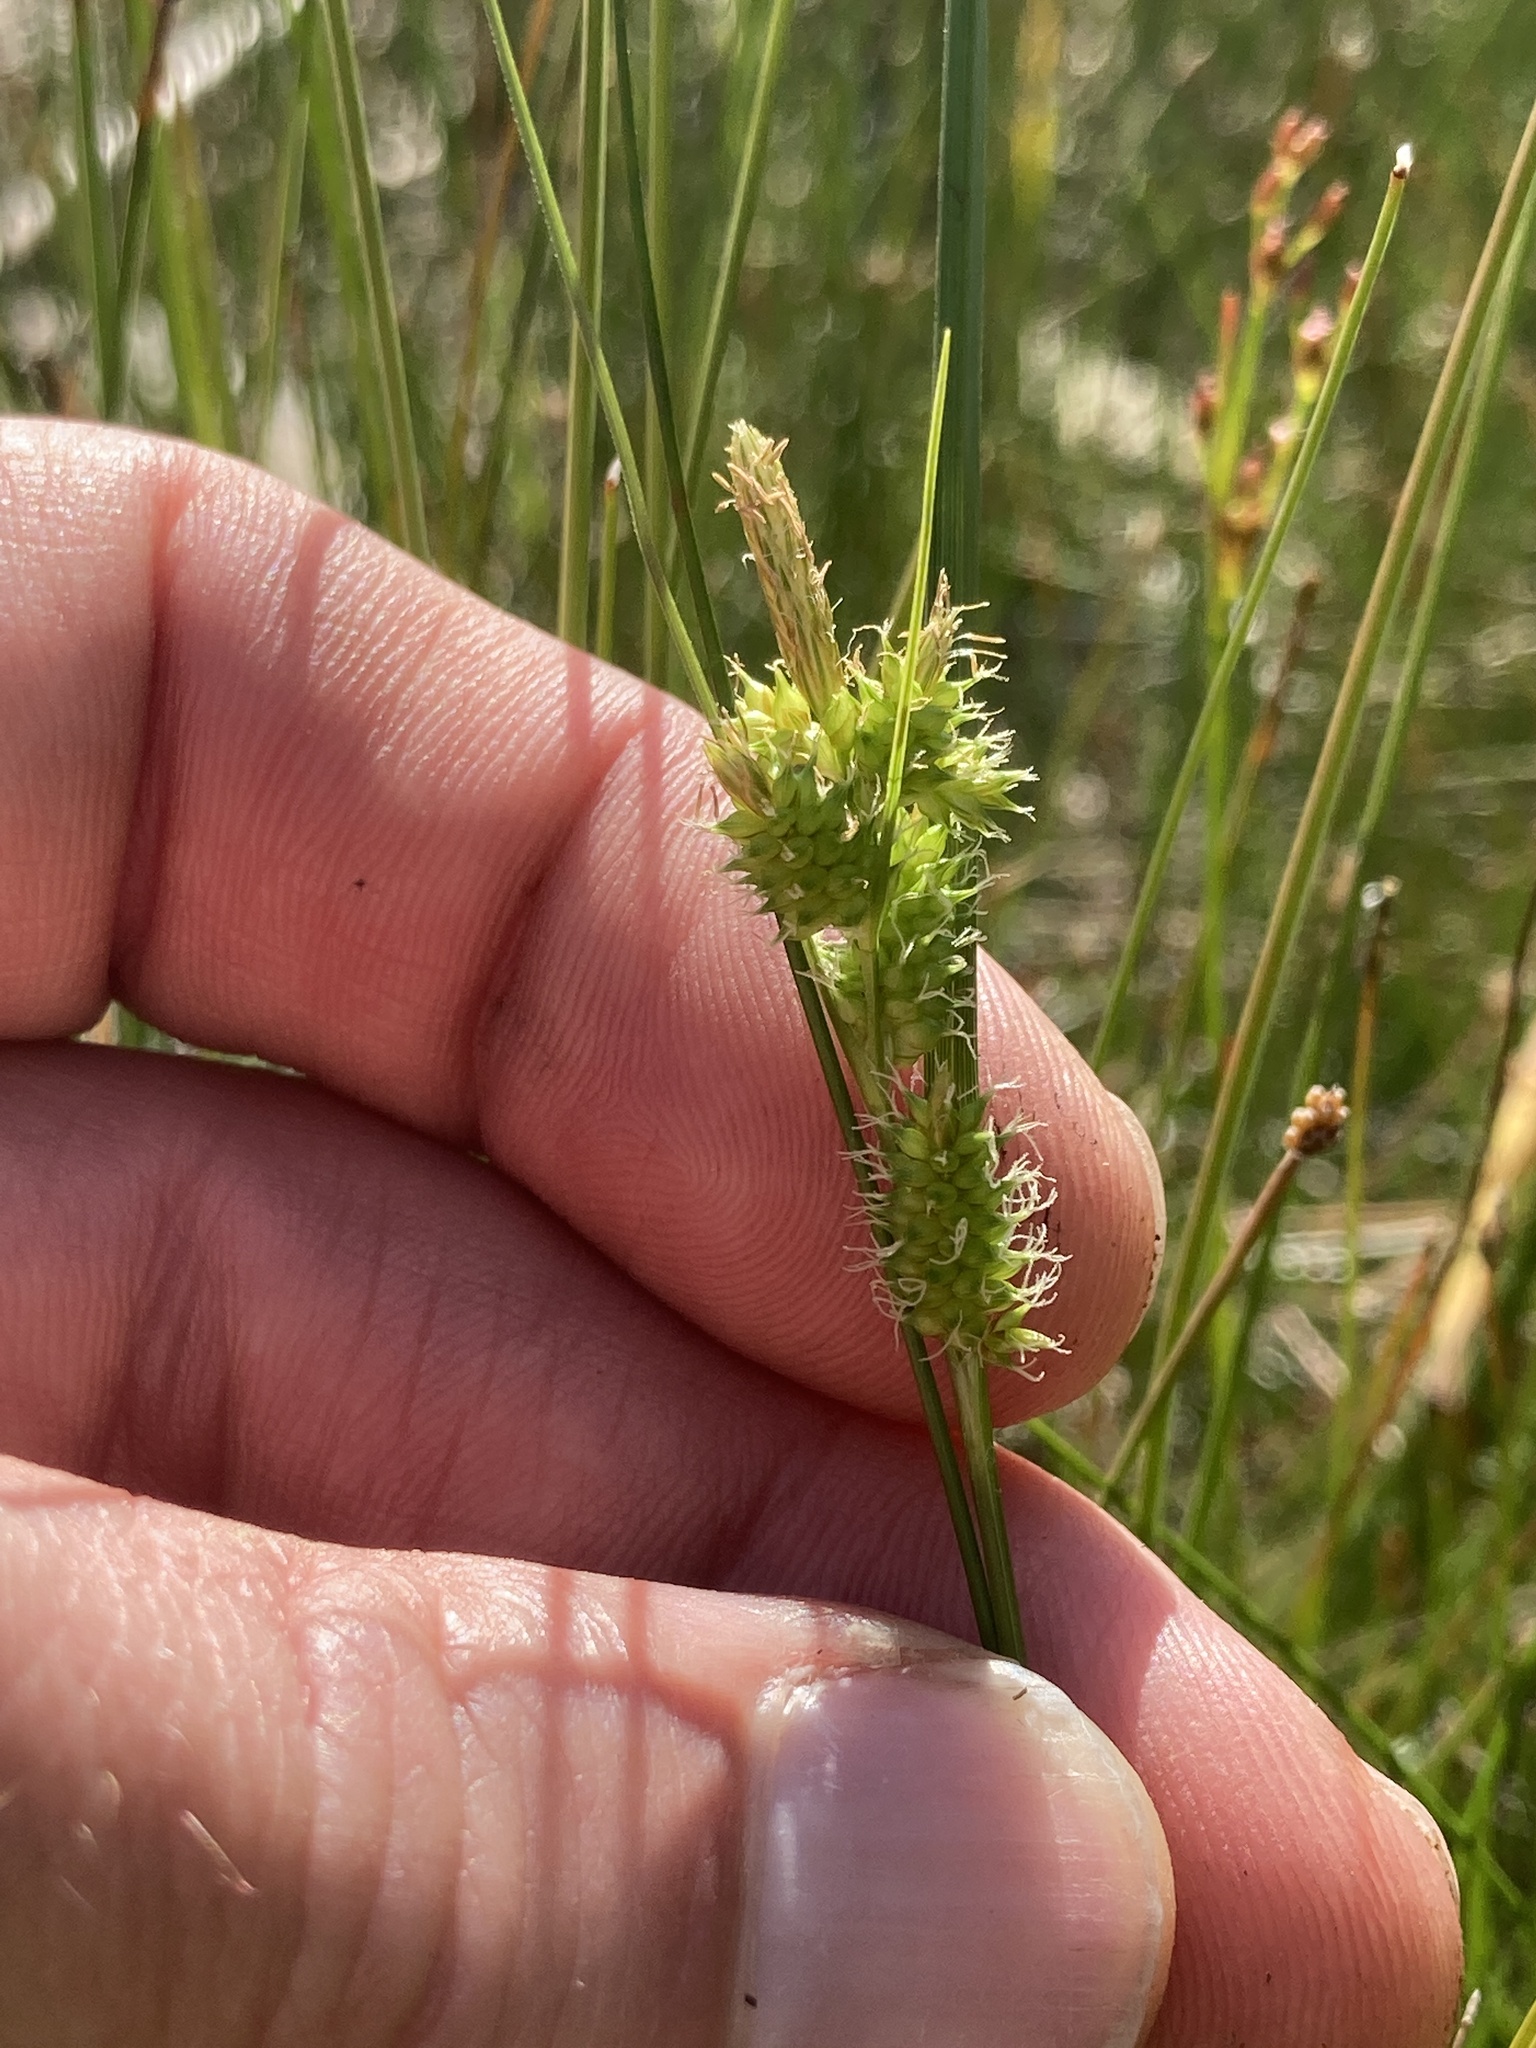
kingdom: Plantae
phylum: Tracheophyta
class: Liliopsida
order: Poales
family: Cyperaceae
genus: Carex
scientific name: Carex
